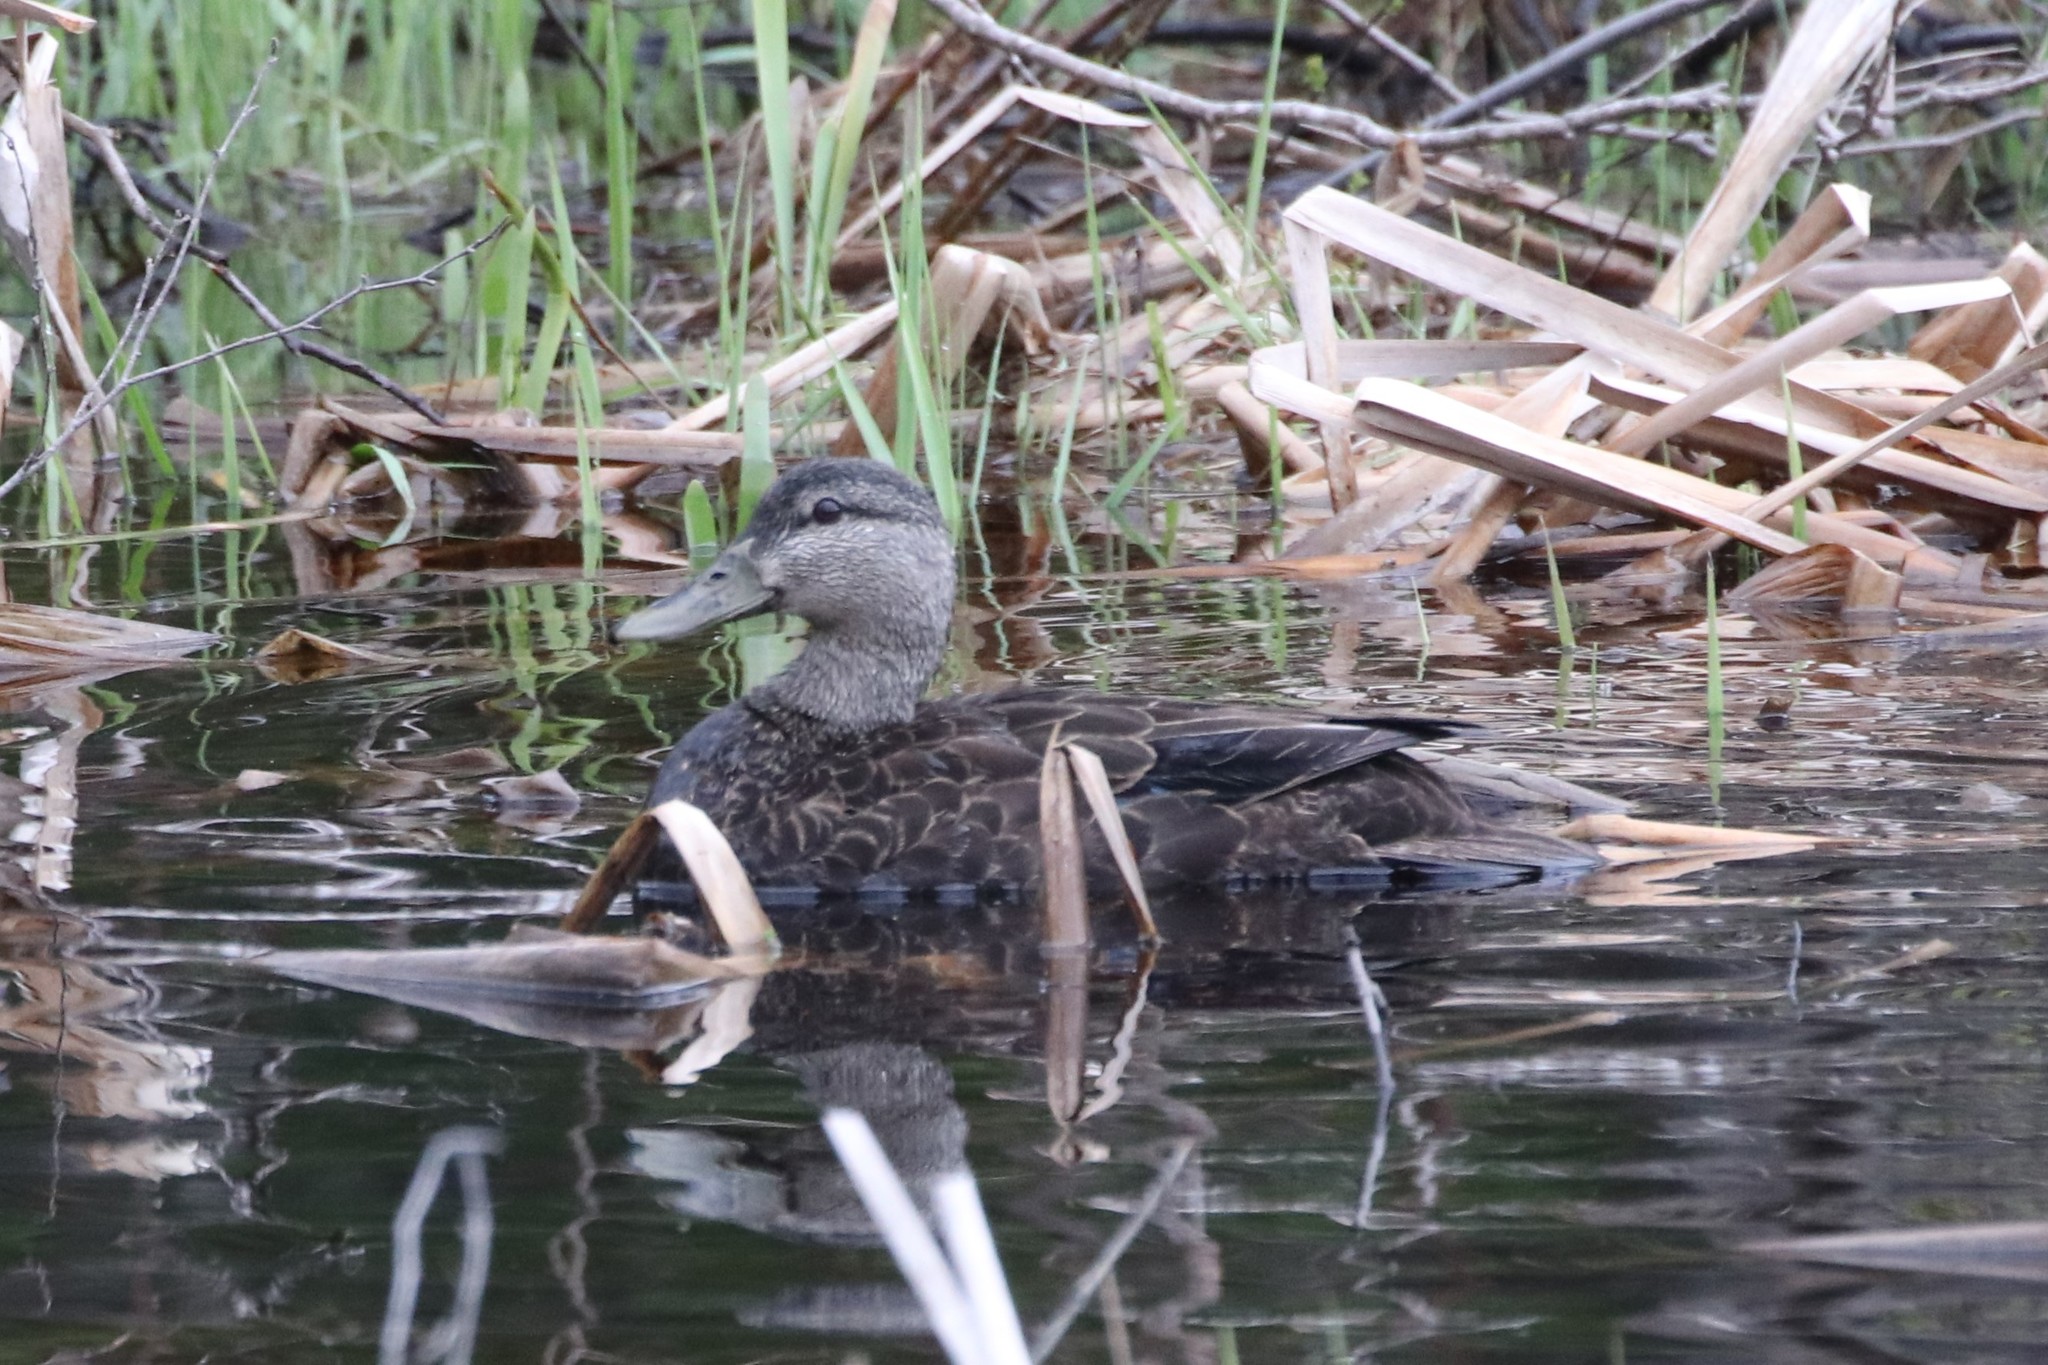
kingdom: Animalia
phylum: Chordata
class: Aves
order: Anseriformes
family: Anatidae
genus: Anas
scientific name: Anas rubripes
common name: American black duck
